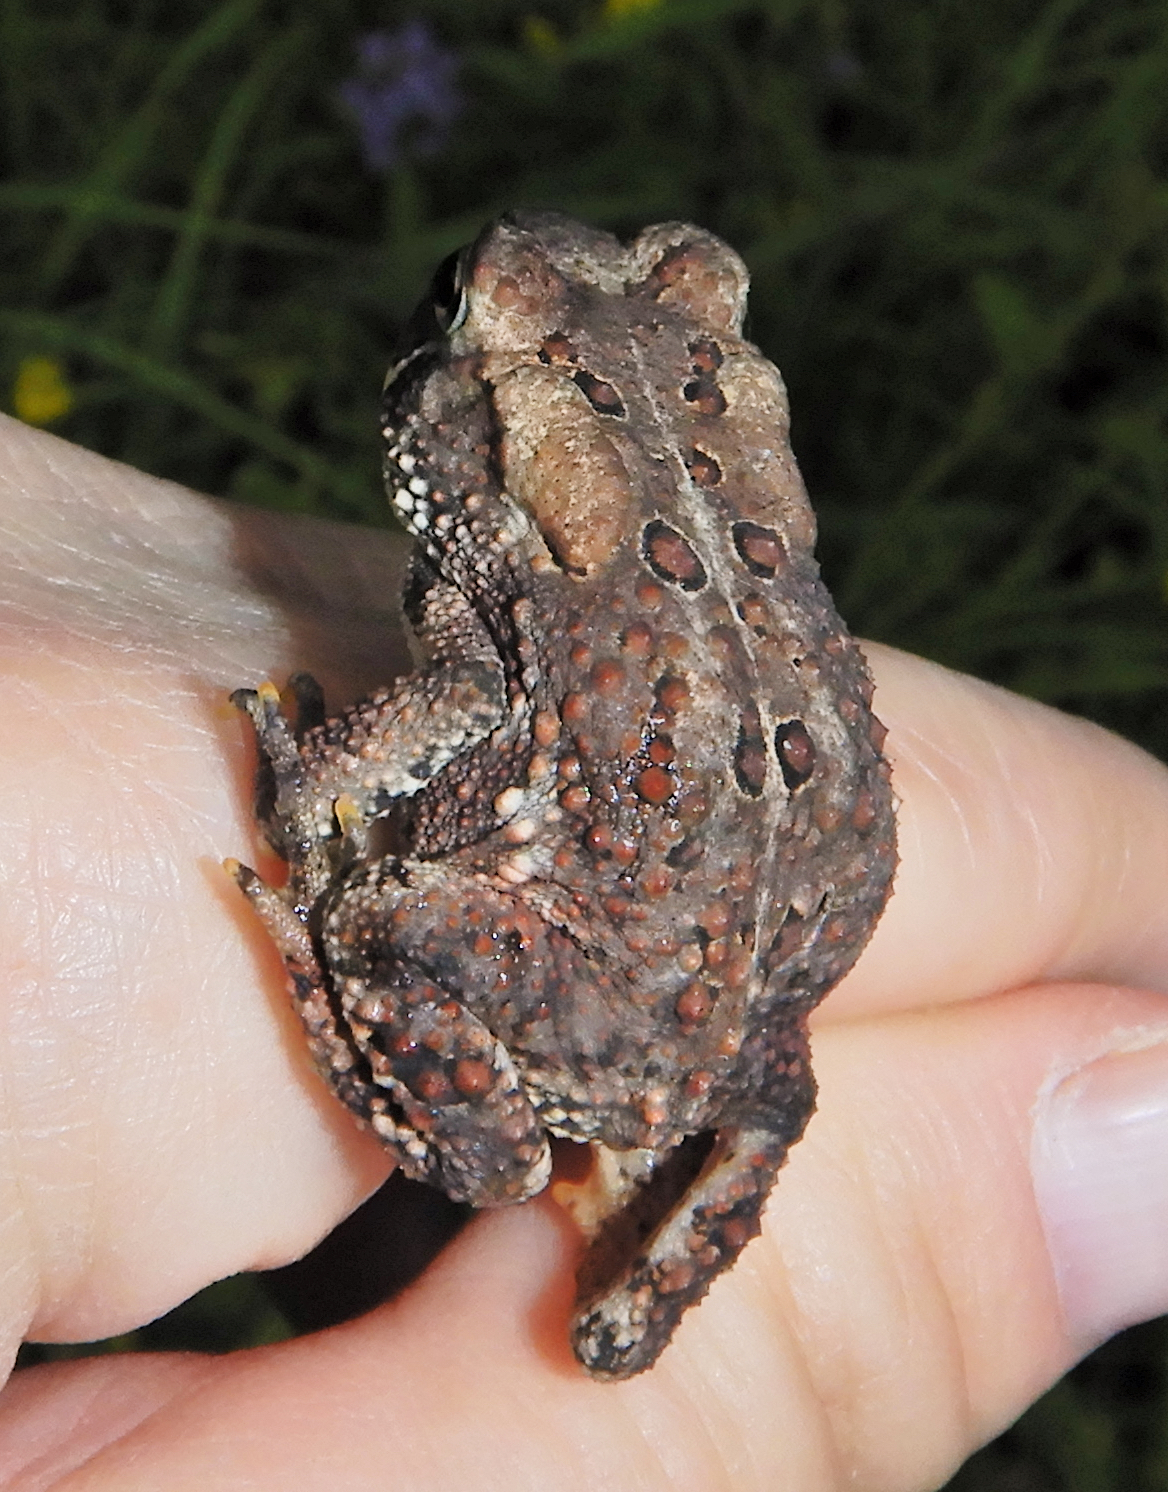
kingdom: Animalia
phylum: Chordata
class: Amphibia
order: Anura
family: Bufonidae
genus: Anaxyrus
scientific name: Anaxyrus americanus
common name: American toad
